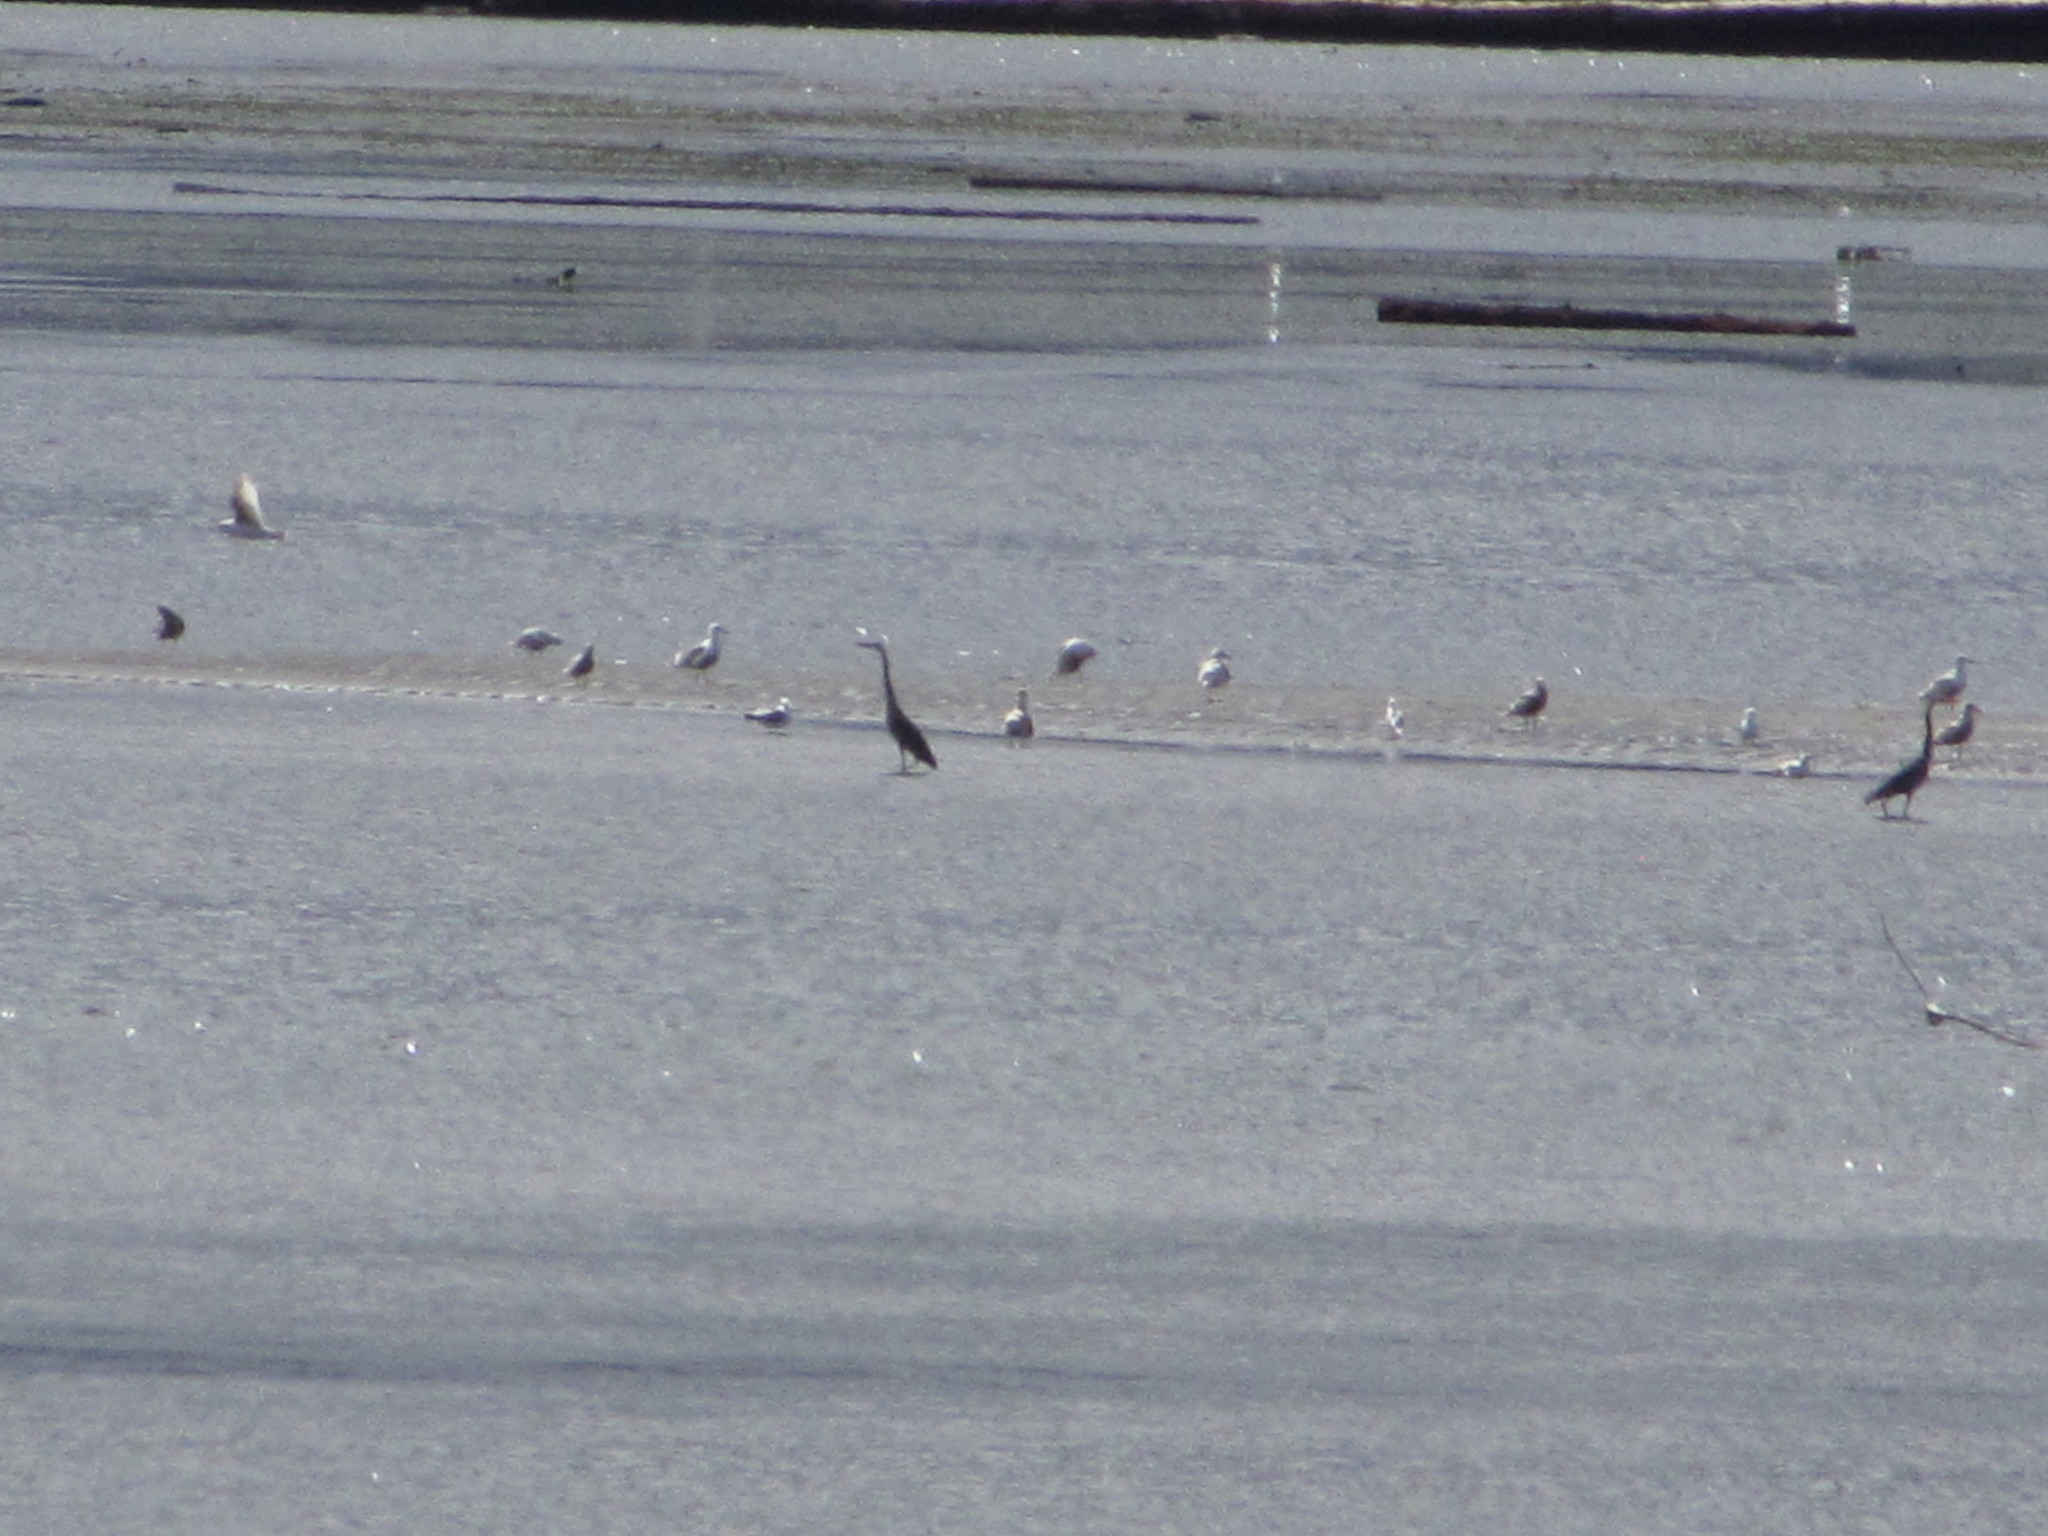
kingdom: Animalia
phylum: Chordata
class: Aves
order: Pelecaniformes
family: Ardeidae
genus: Ardea
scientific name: Ardea herodias
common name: Great blue heron
